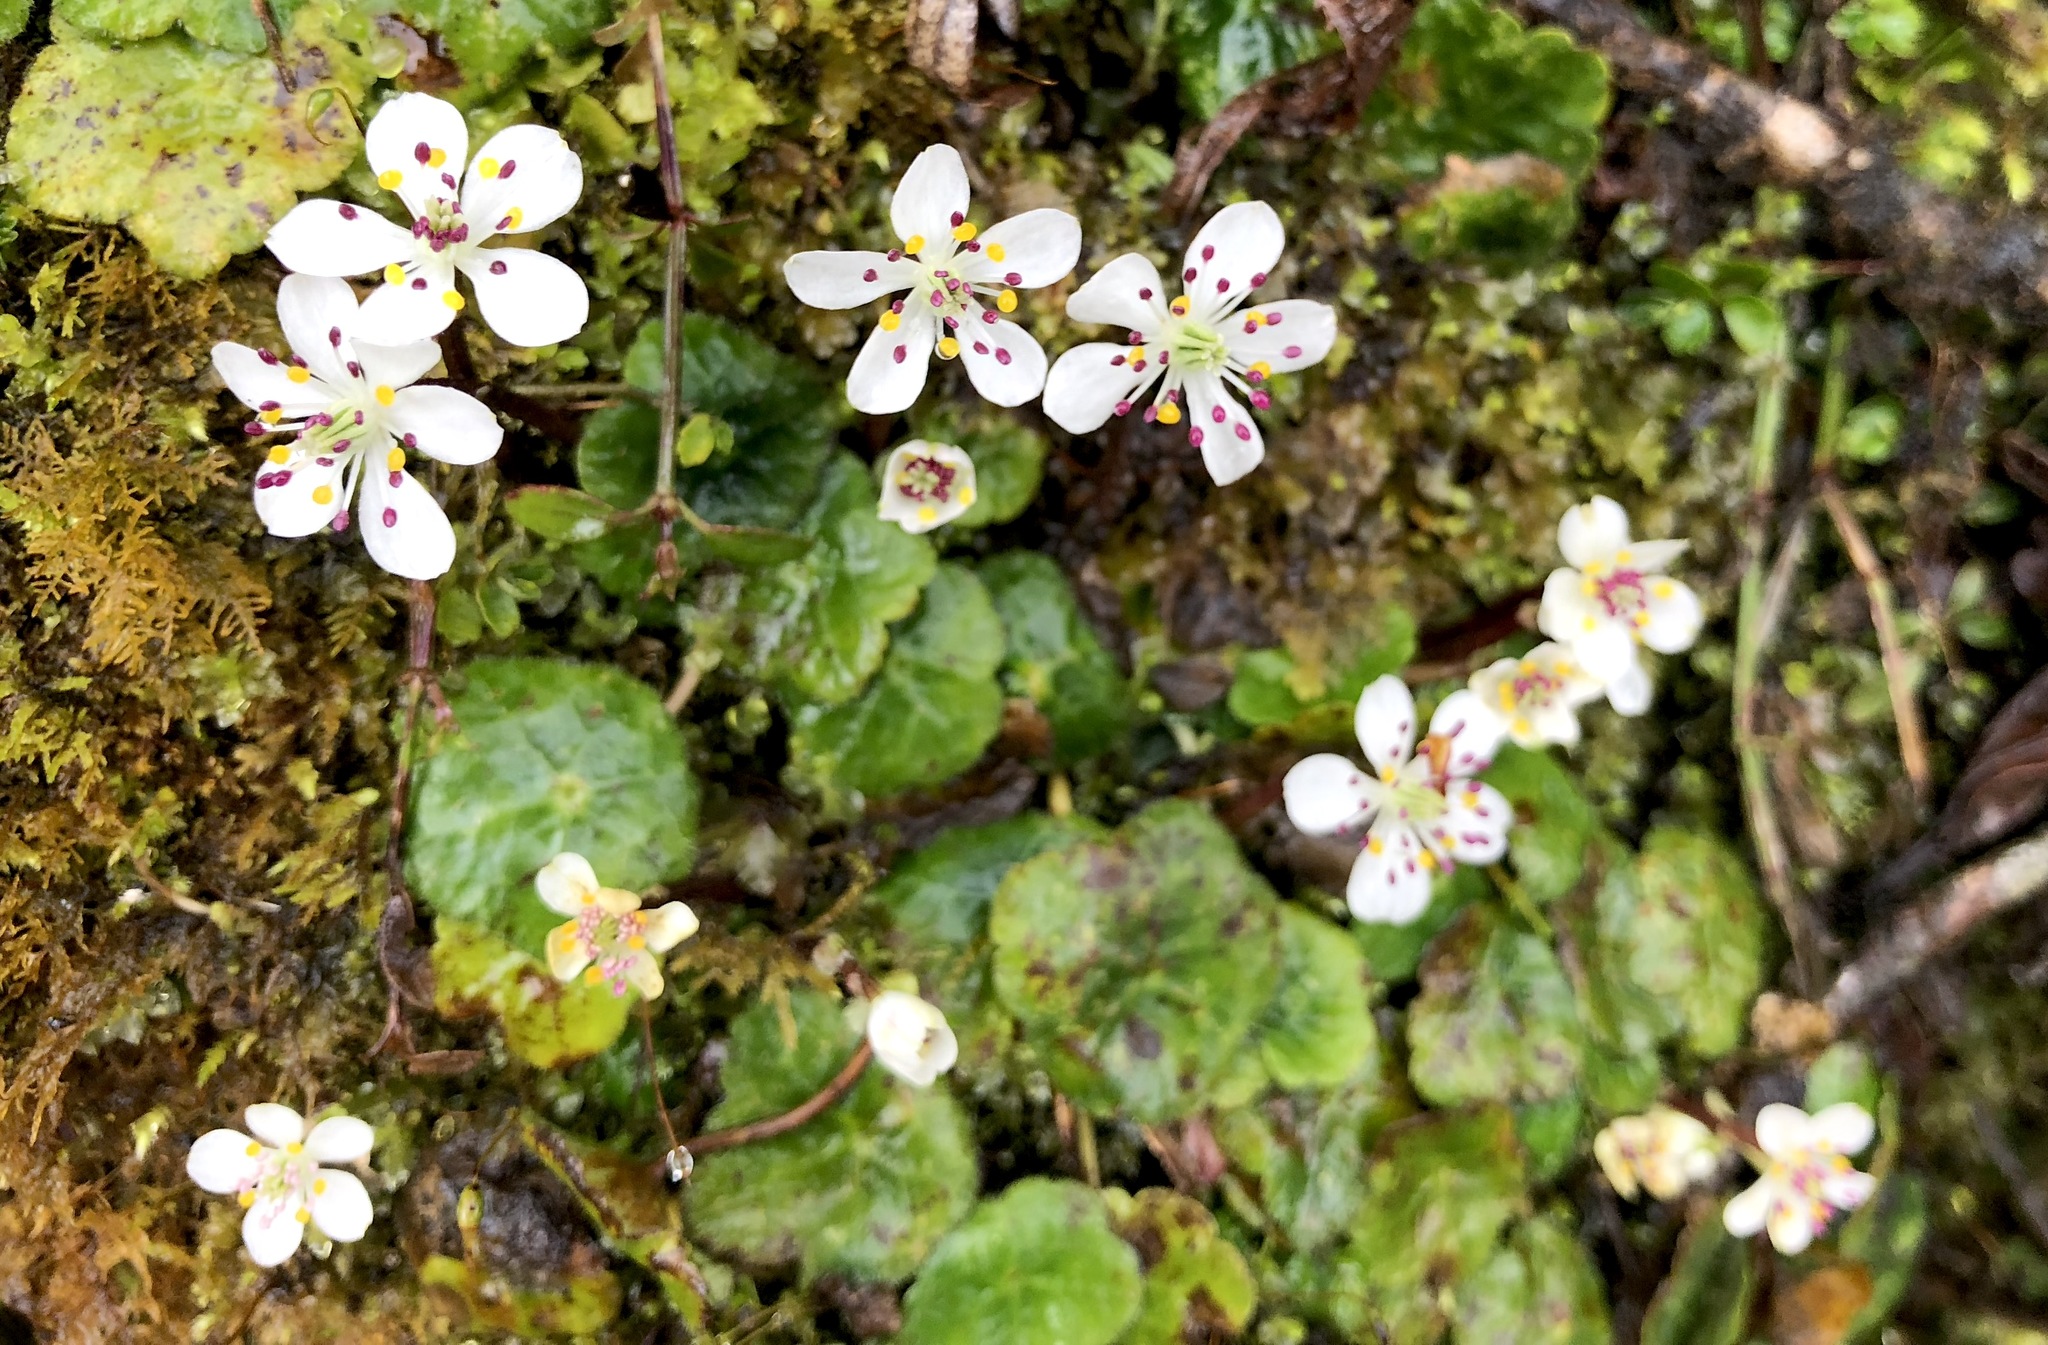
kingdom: Plantae
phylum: Tracheophyta
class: Magnoliopsida
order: Ranunculales
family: Ranunculaceae
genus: Asteropyrum
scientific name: Asteropyrum peltatum
